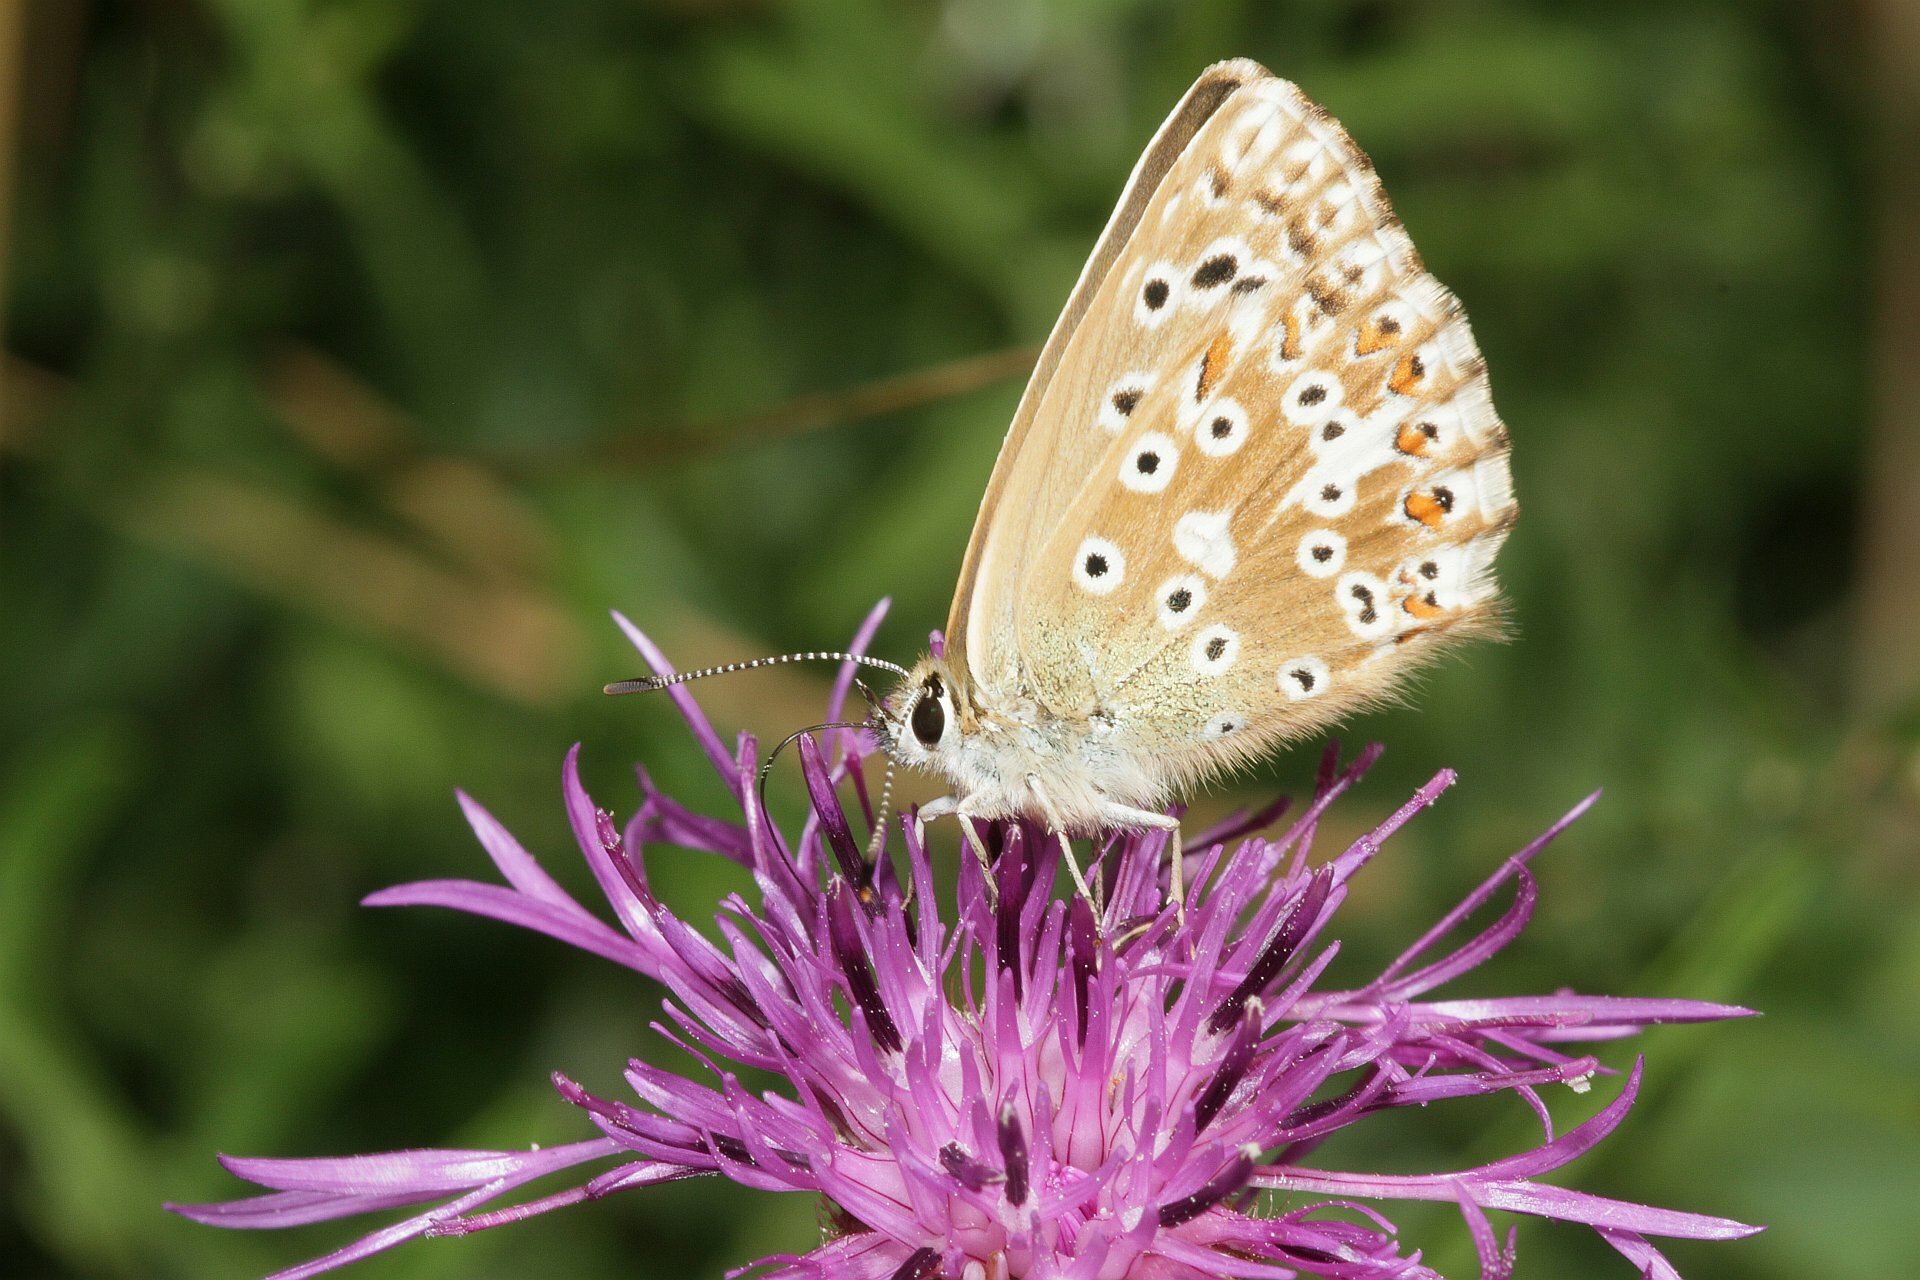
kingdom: Animalia
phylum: Arthropoda
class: Insecta
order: Lepidoptera
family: Lycaenidae
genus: Lysandra
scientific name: Lysandra coridon
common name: Chalkhill blue
